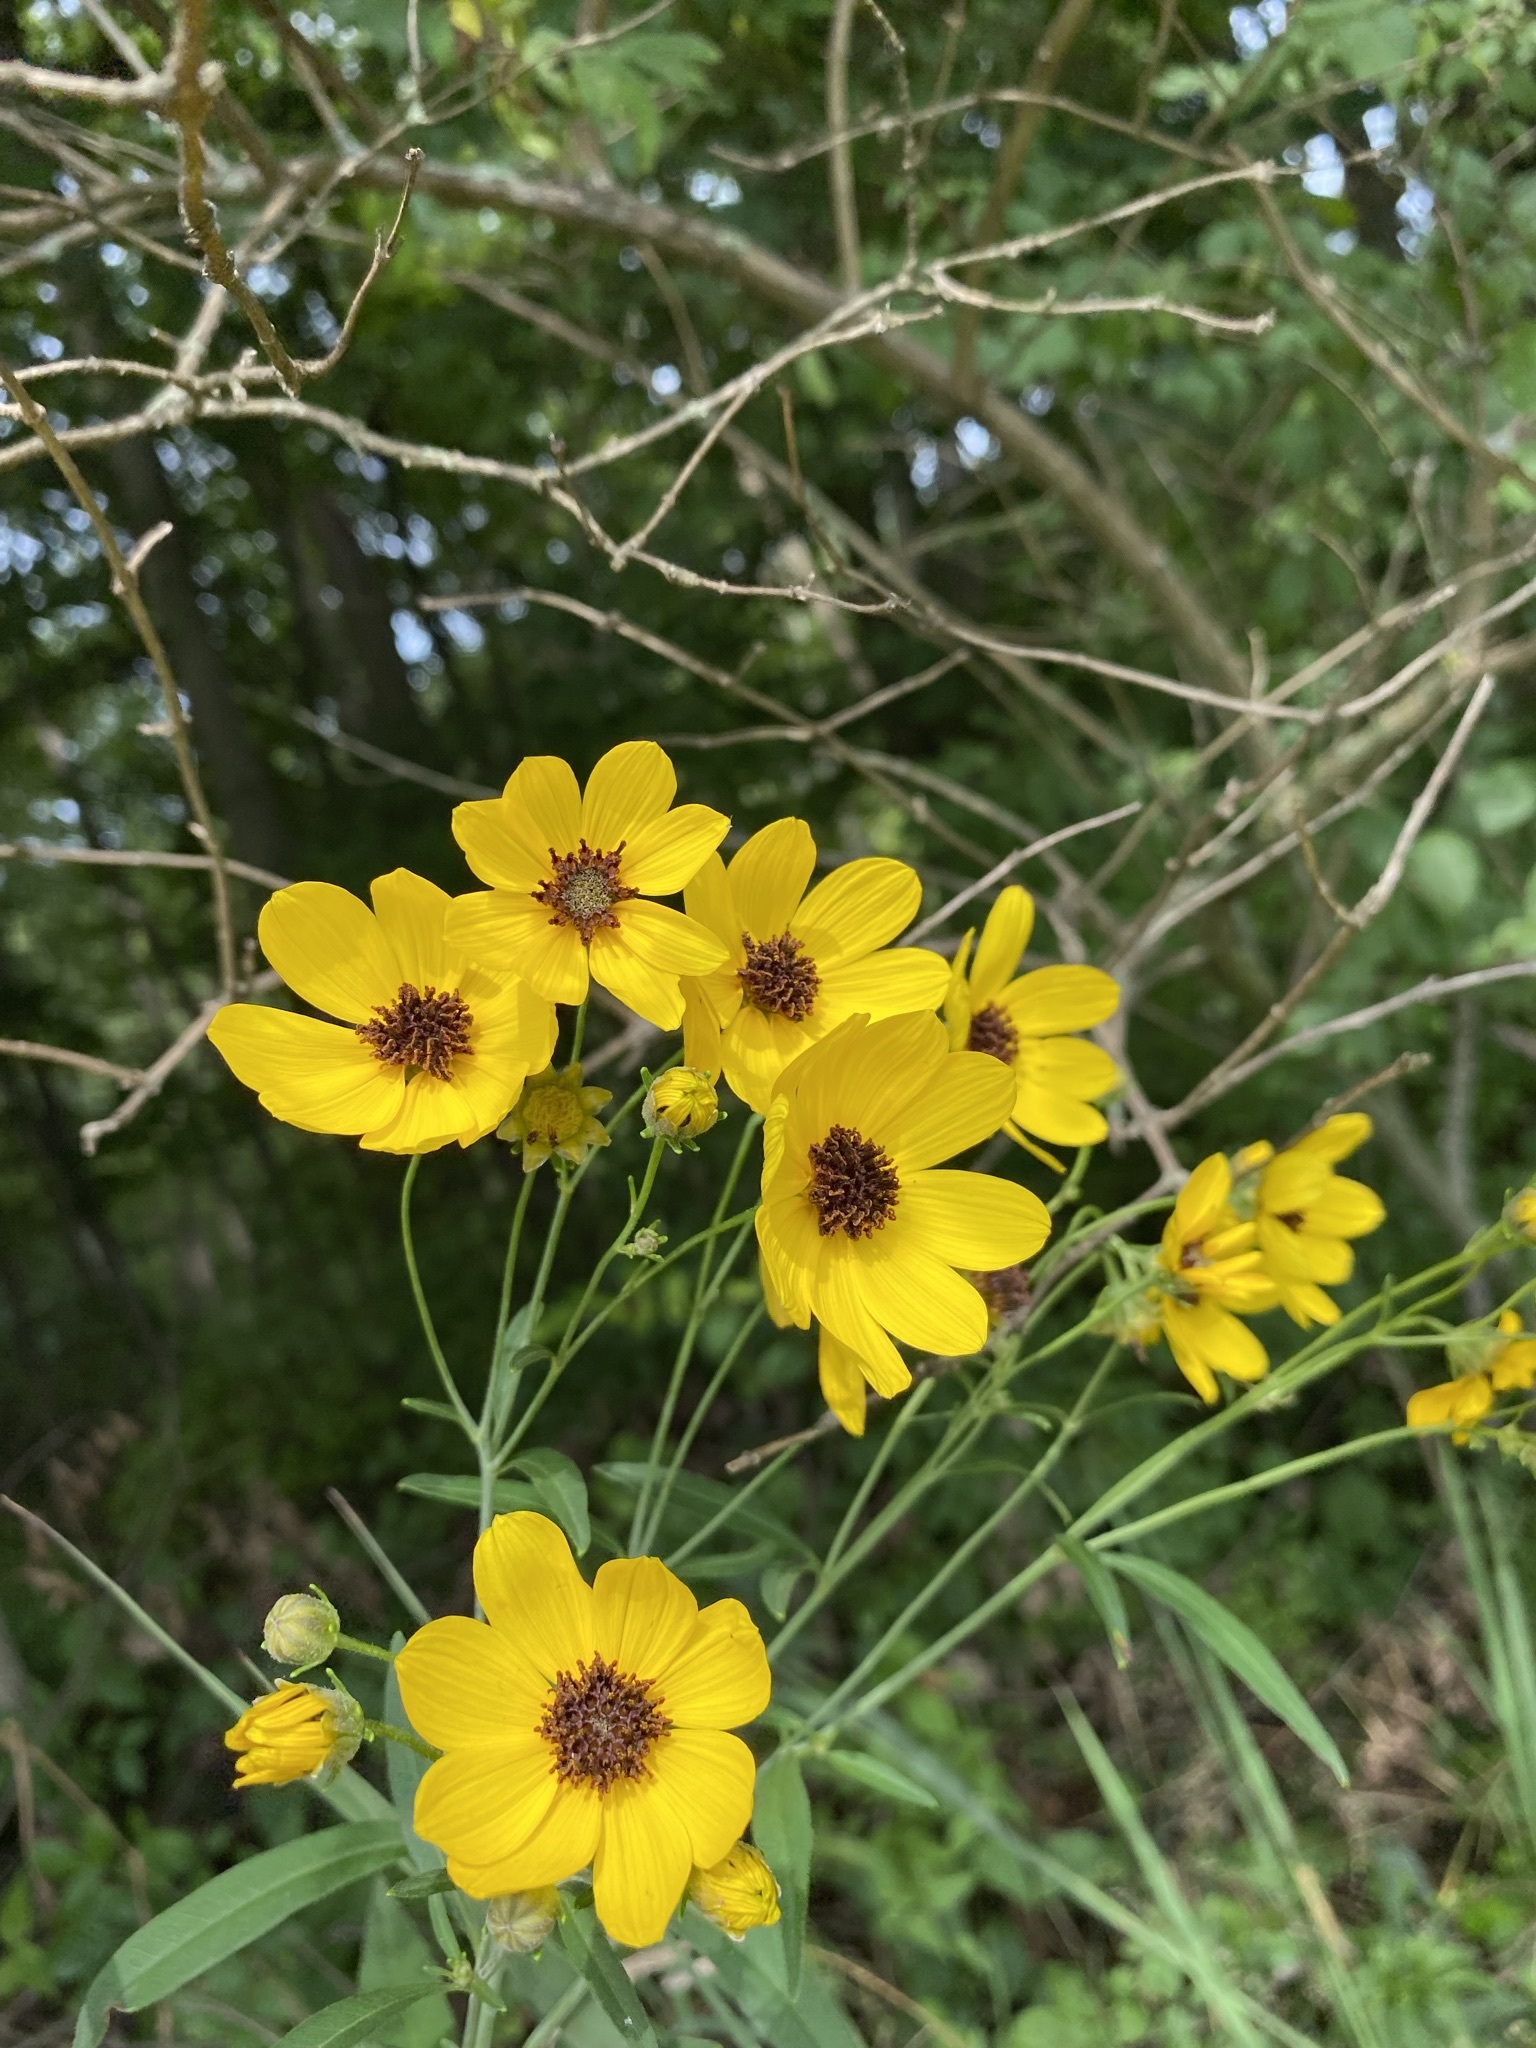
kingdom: Plantae
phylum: Tracheophyta
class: Magnoliopsida
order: Asterales
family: Asteraceae
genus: Coreopsis
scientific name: Coreopsis tripteris
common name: Tall coreopsis
